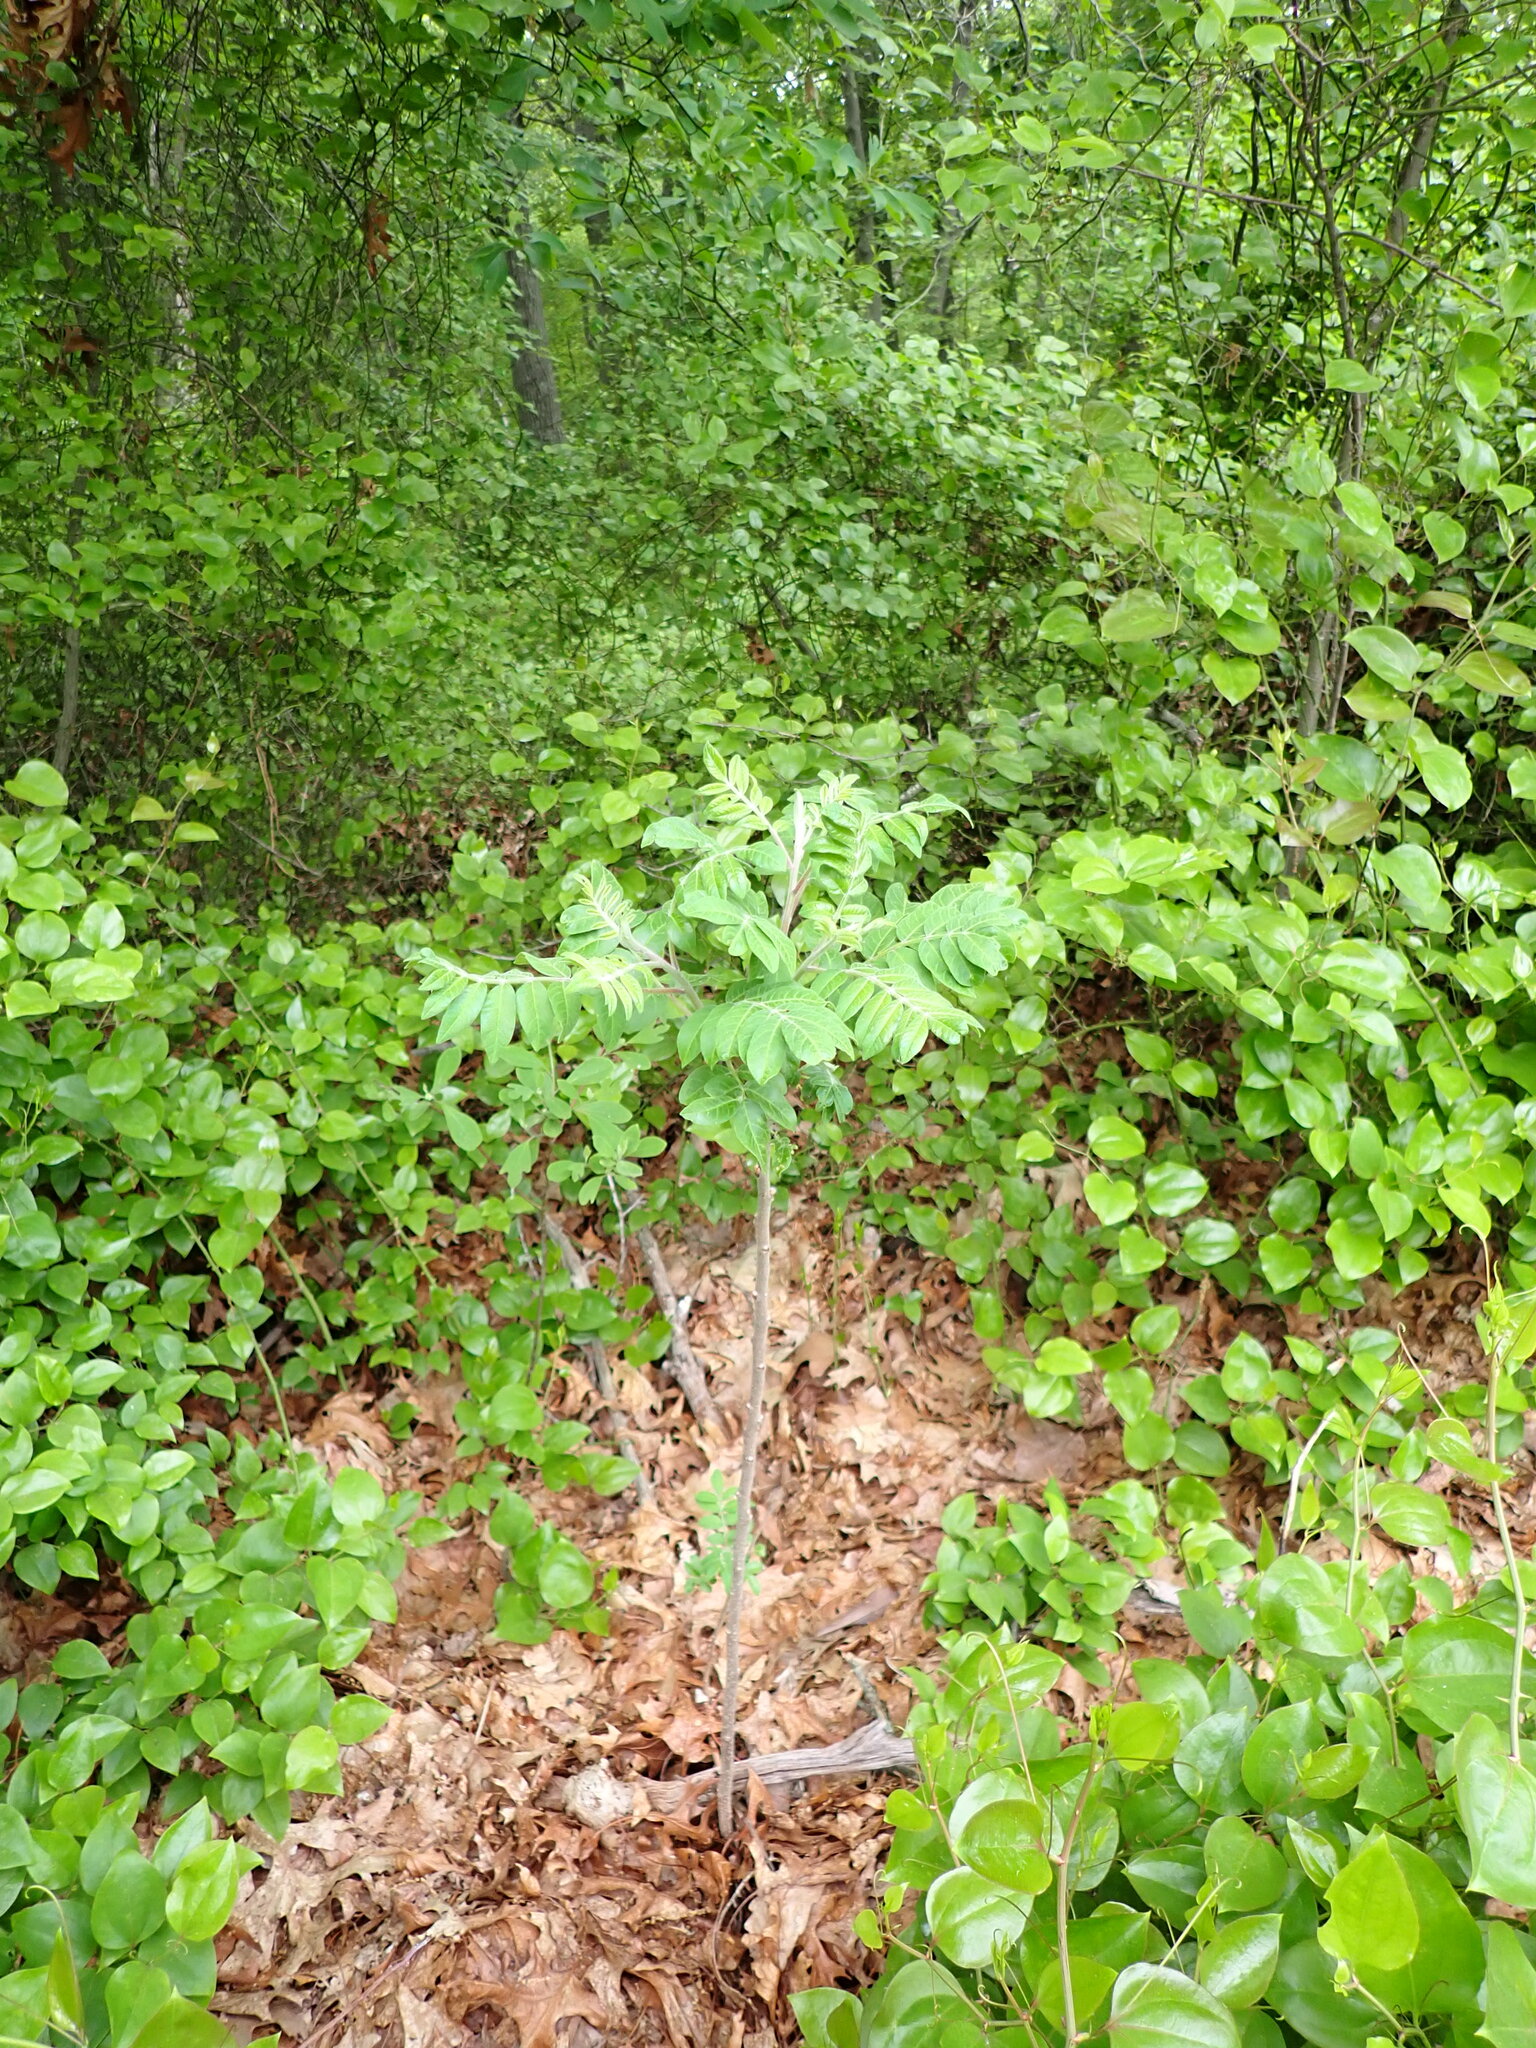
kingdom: Plantae
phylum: Tracheophyta
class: Magnoliopsida
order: Sapindales
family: Anacardiaceae
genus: Rhus
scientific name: Rhus copallina
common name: Shining sumac
